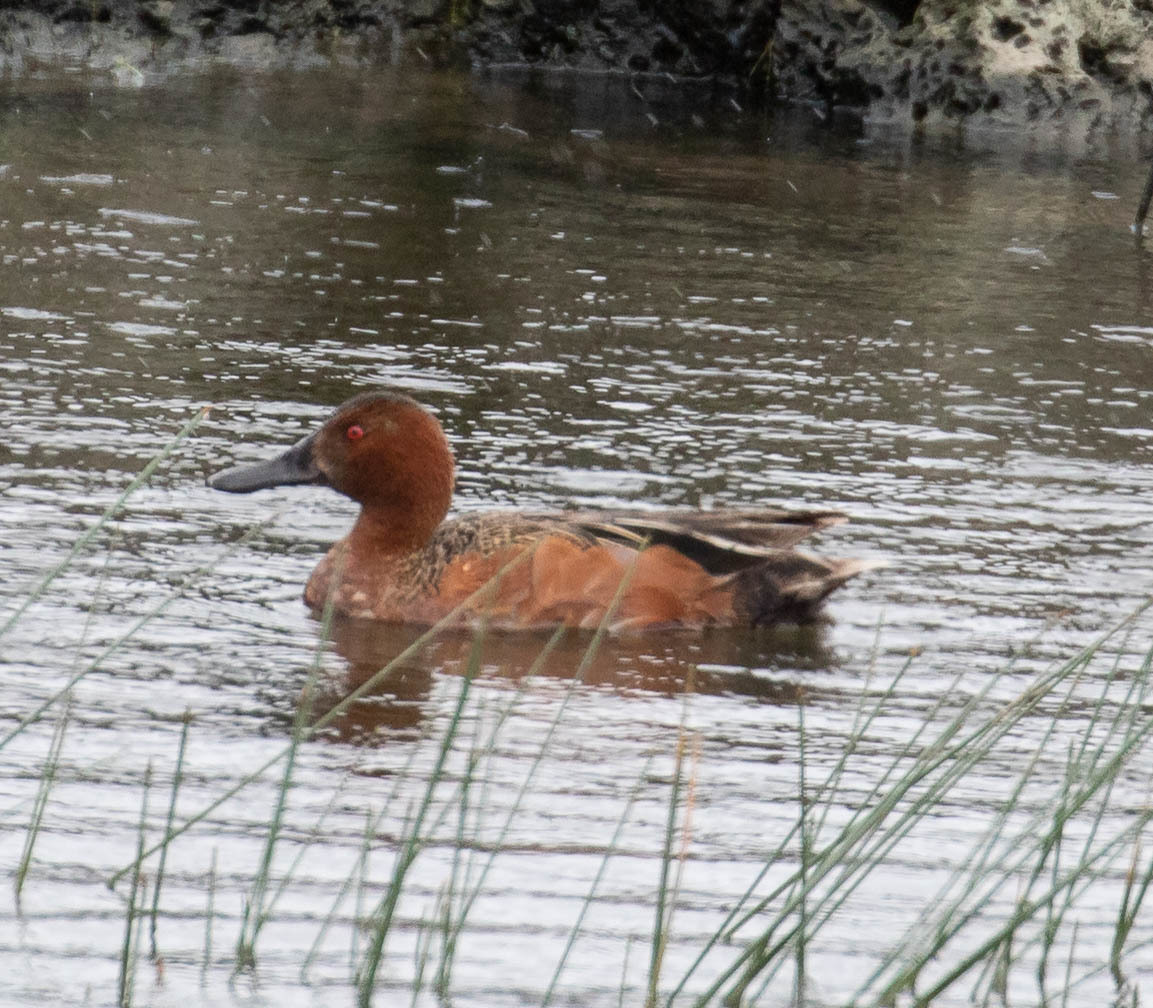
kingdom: Animalia
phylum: Chordata
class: Aves
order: Anseriformes
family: Anatidae
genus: Spatula
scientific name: Spatula cyanoptera
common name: Cinnamon teal
